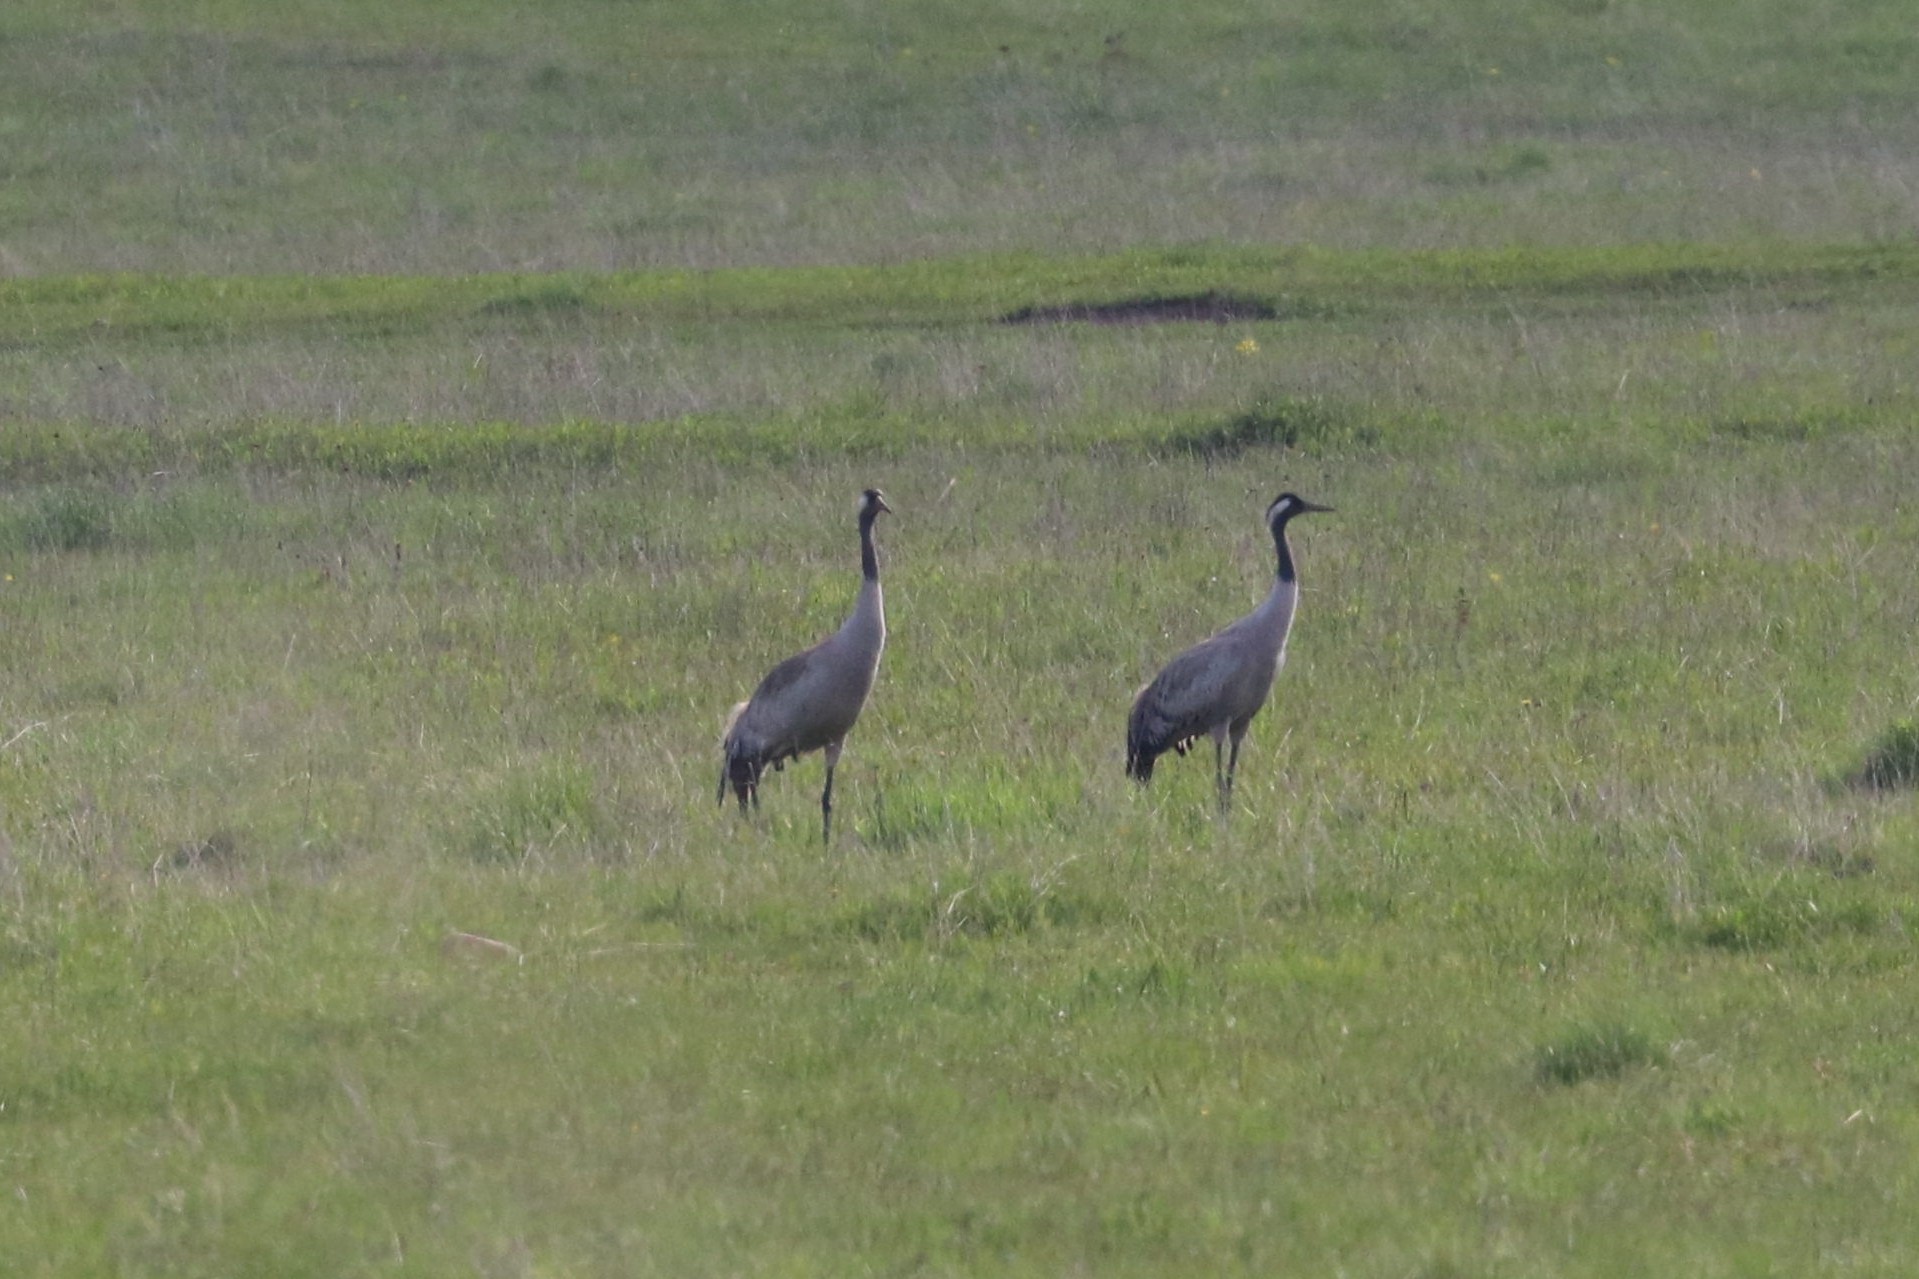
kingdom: Animalia
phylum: Chordata
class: Aves
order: Gruiformes
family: Gruidae
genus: Grus
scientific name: Grus grus
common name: Common crane
